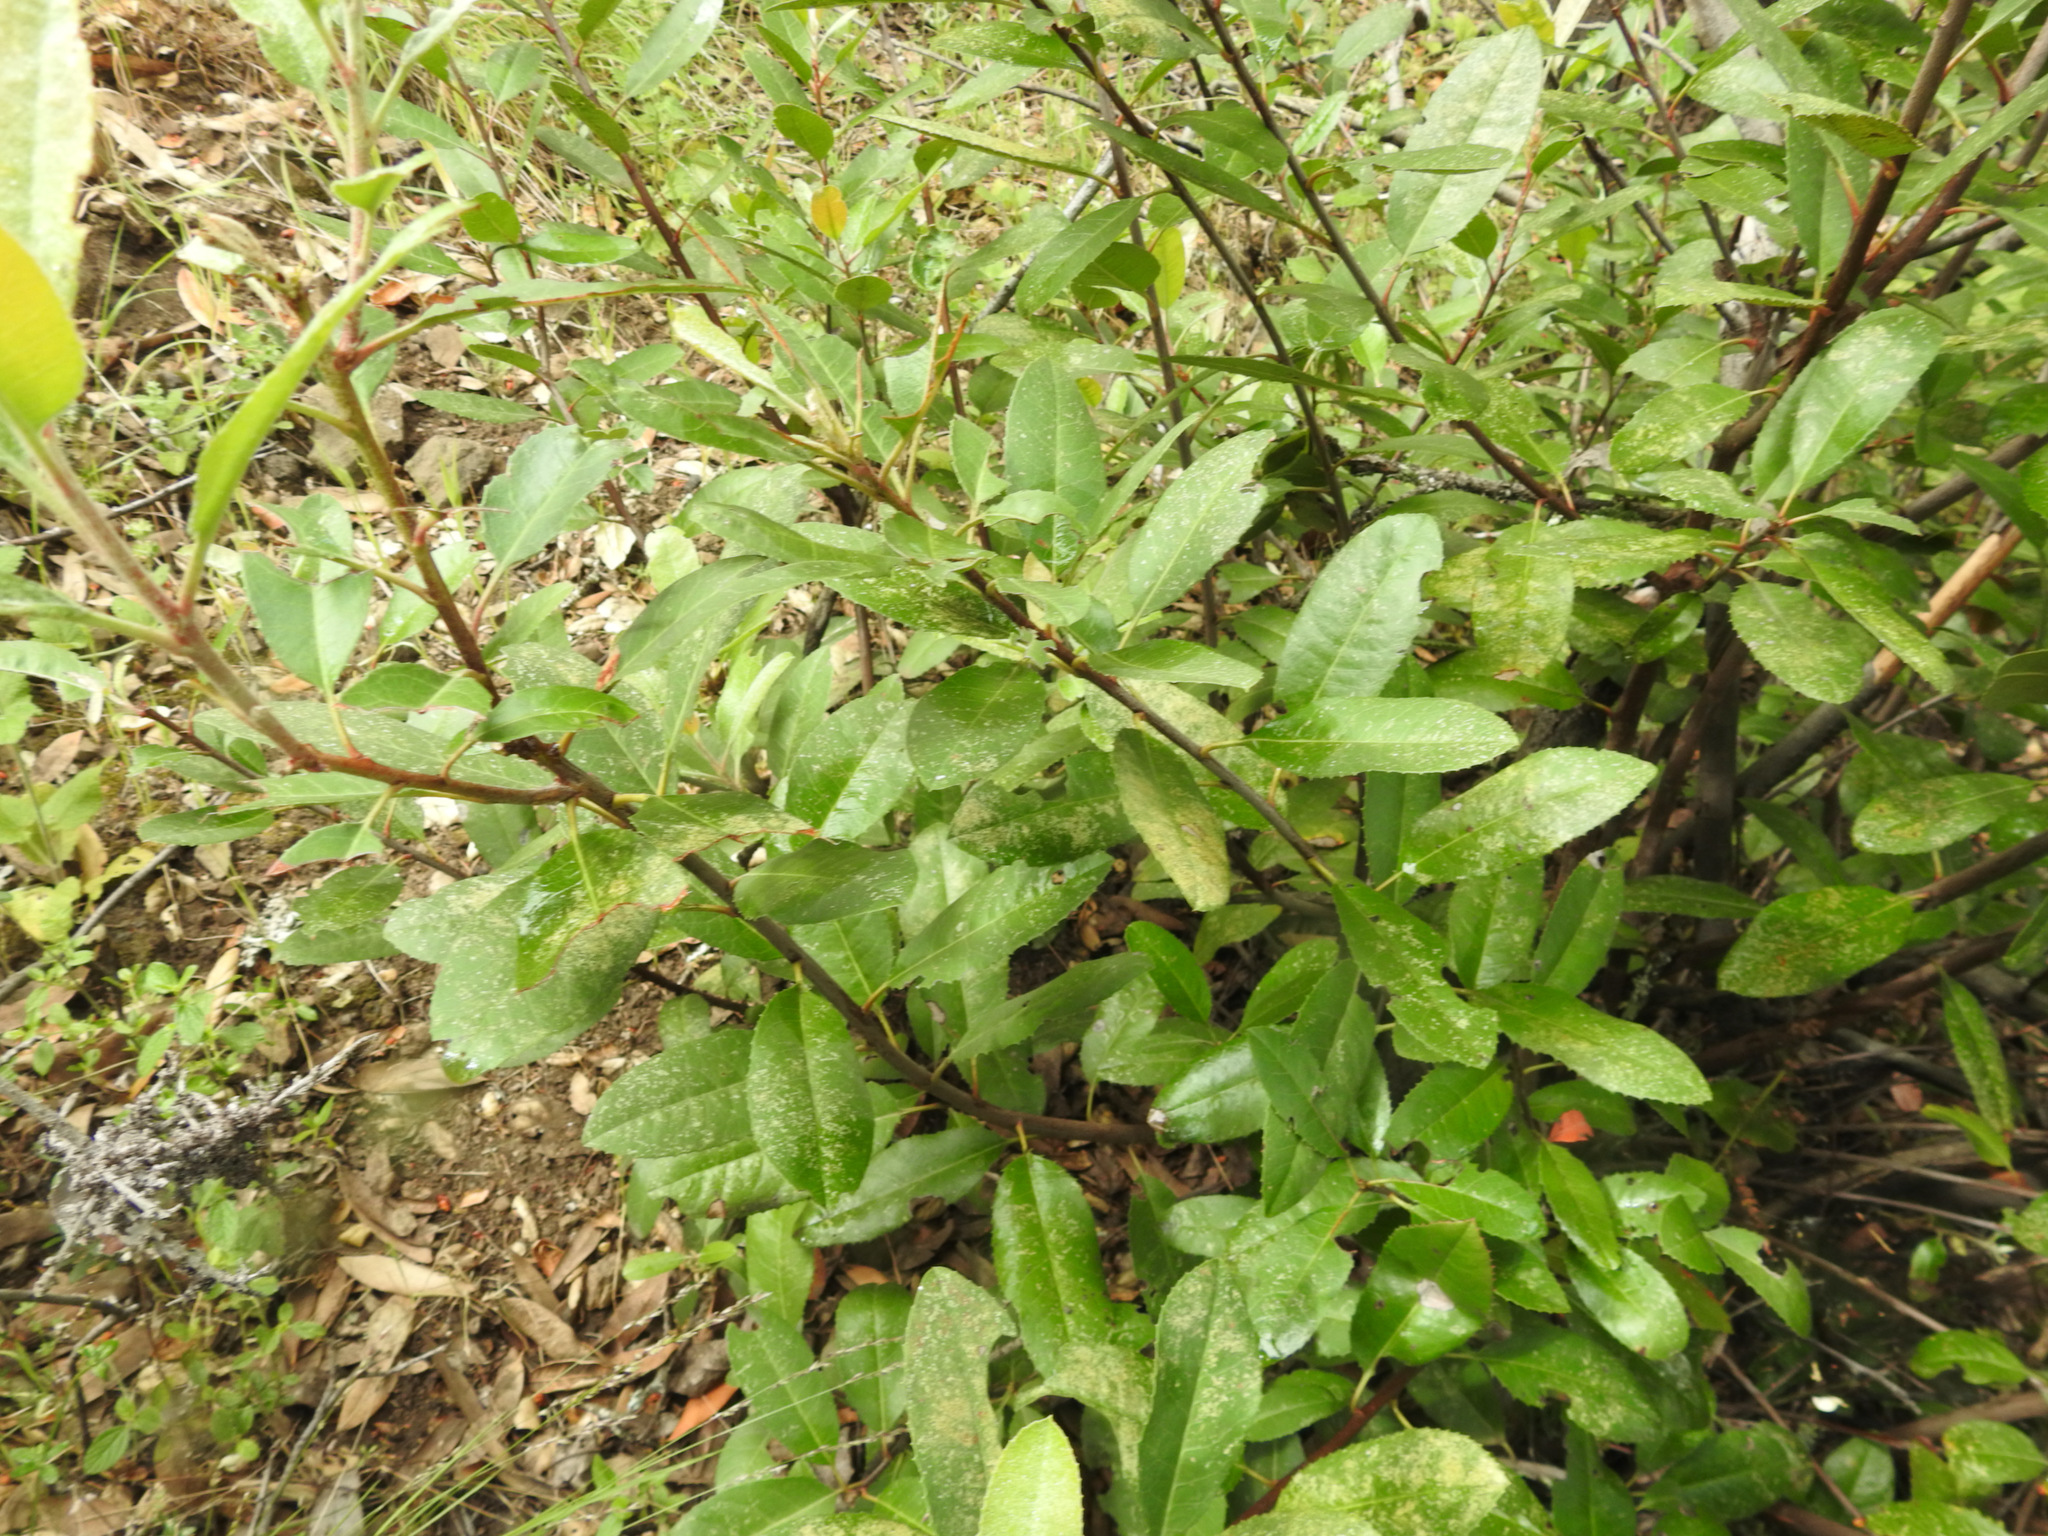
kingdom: Plantae
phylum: Tracheophyta
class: Magnoliopsida
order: Rosales
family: Rosaceae
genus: Heteromeles
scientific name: Heteromeles arbutifolia
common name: California-holly
